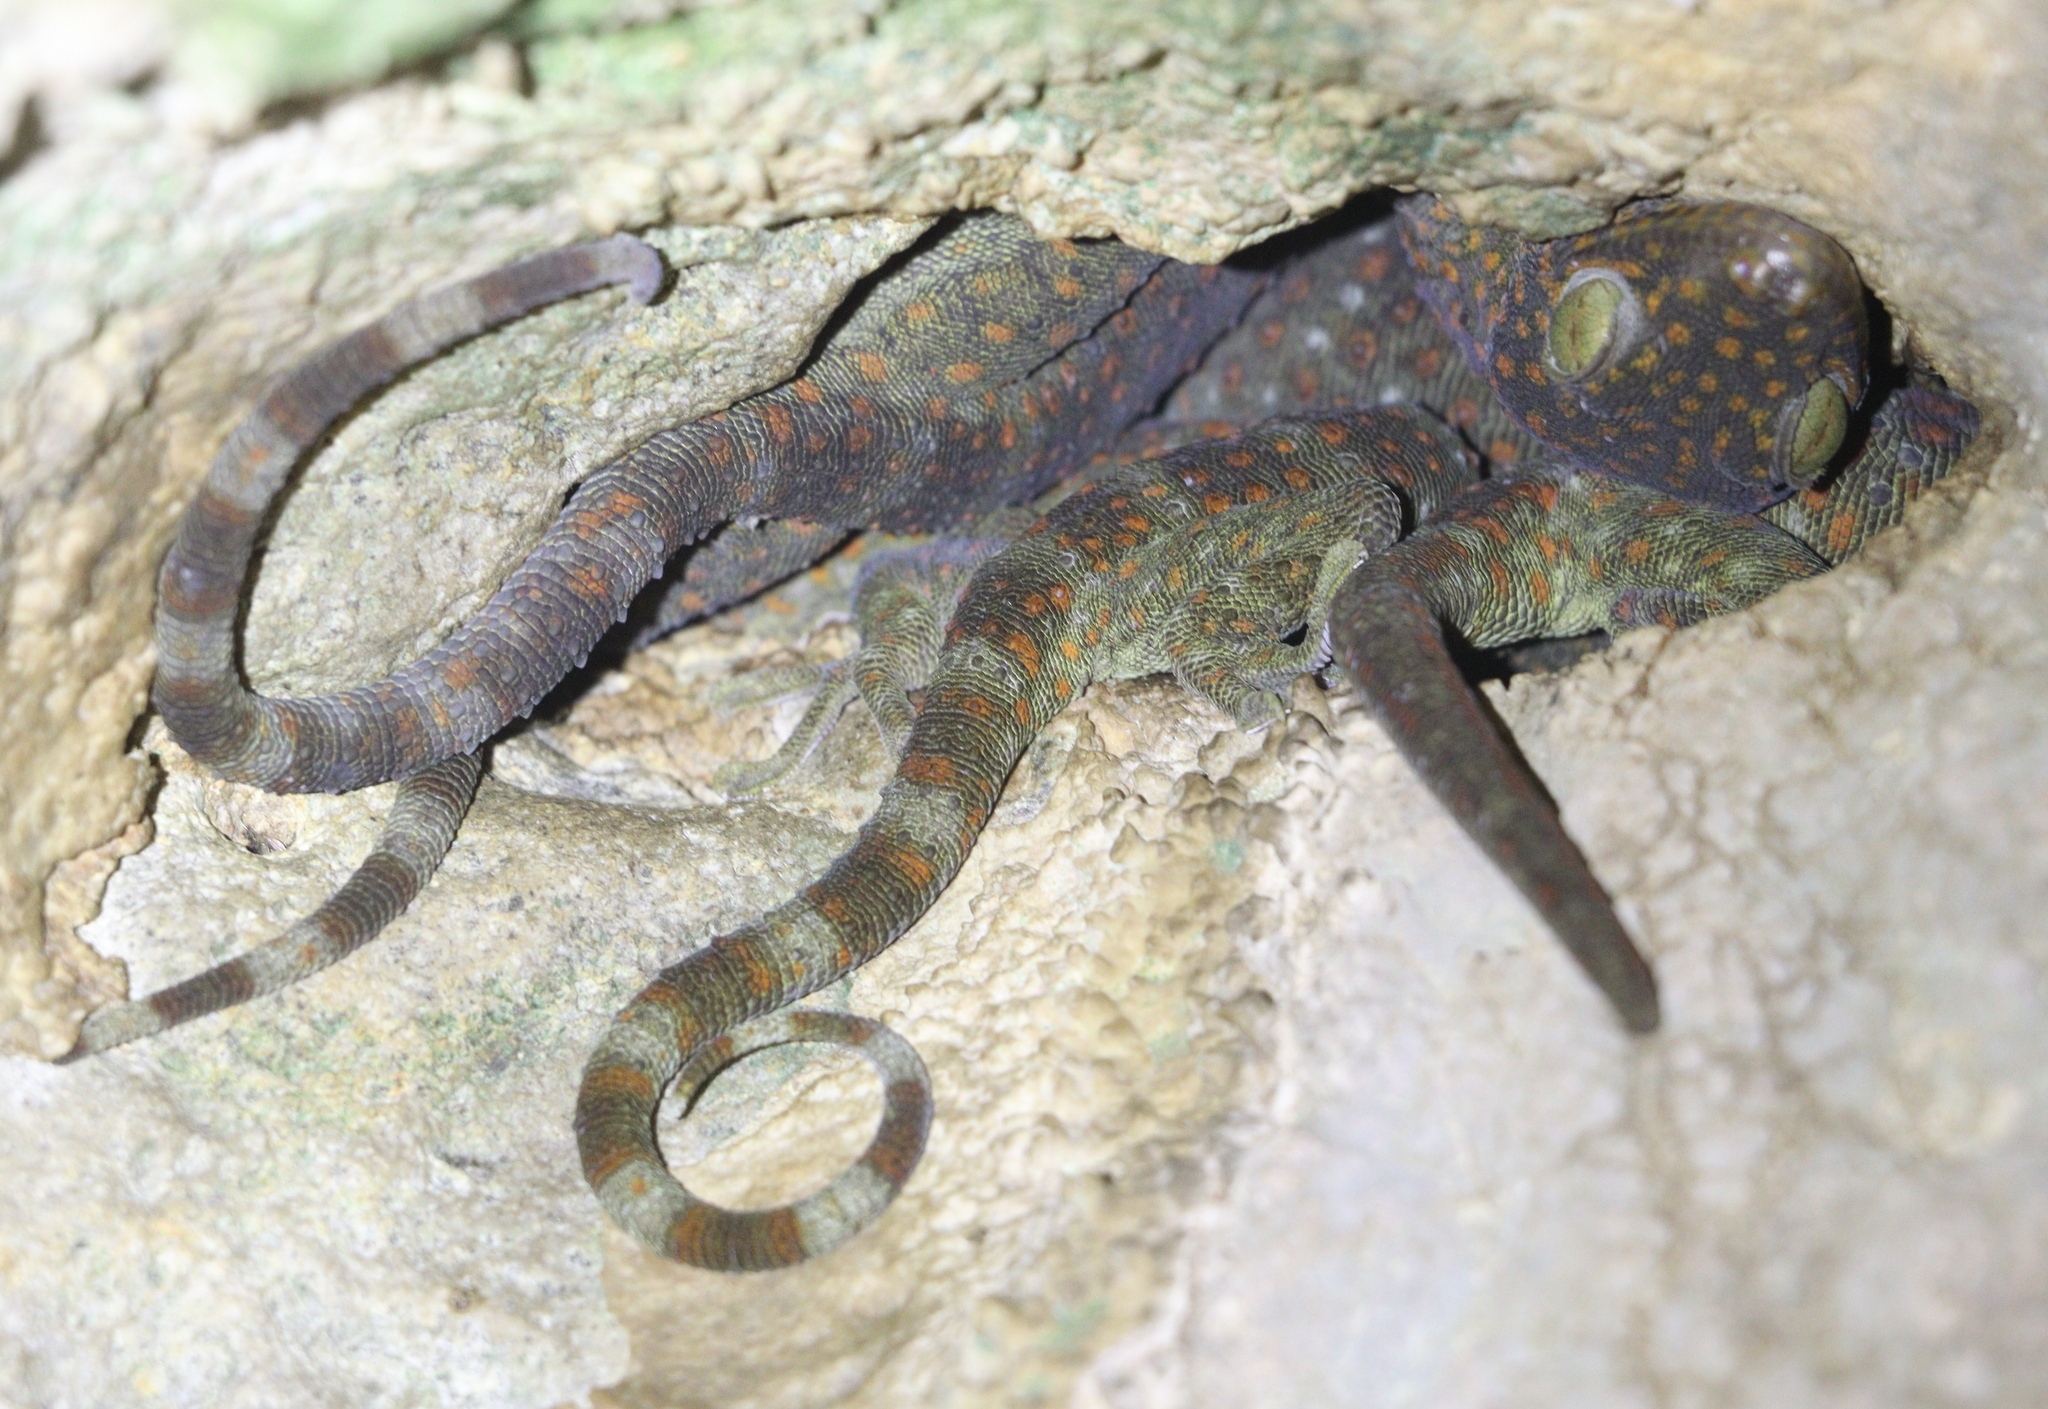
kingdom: Animalia
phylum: Chordata
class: Squamata
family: Gekkonidae
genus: Gekko
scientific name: Gekko gecko
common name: Tokay gecko
